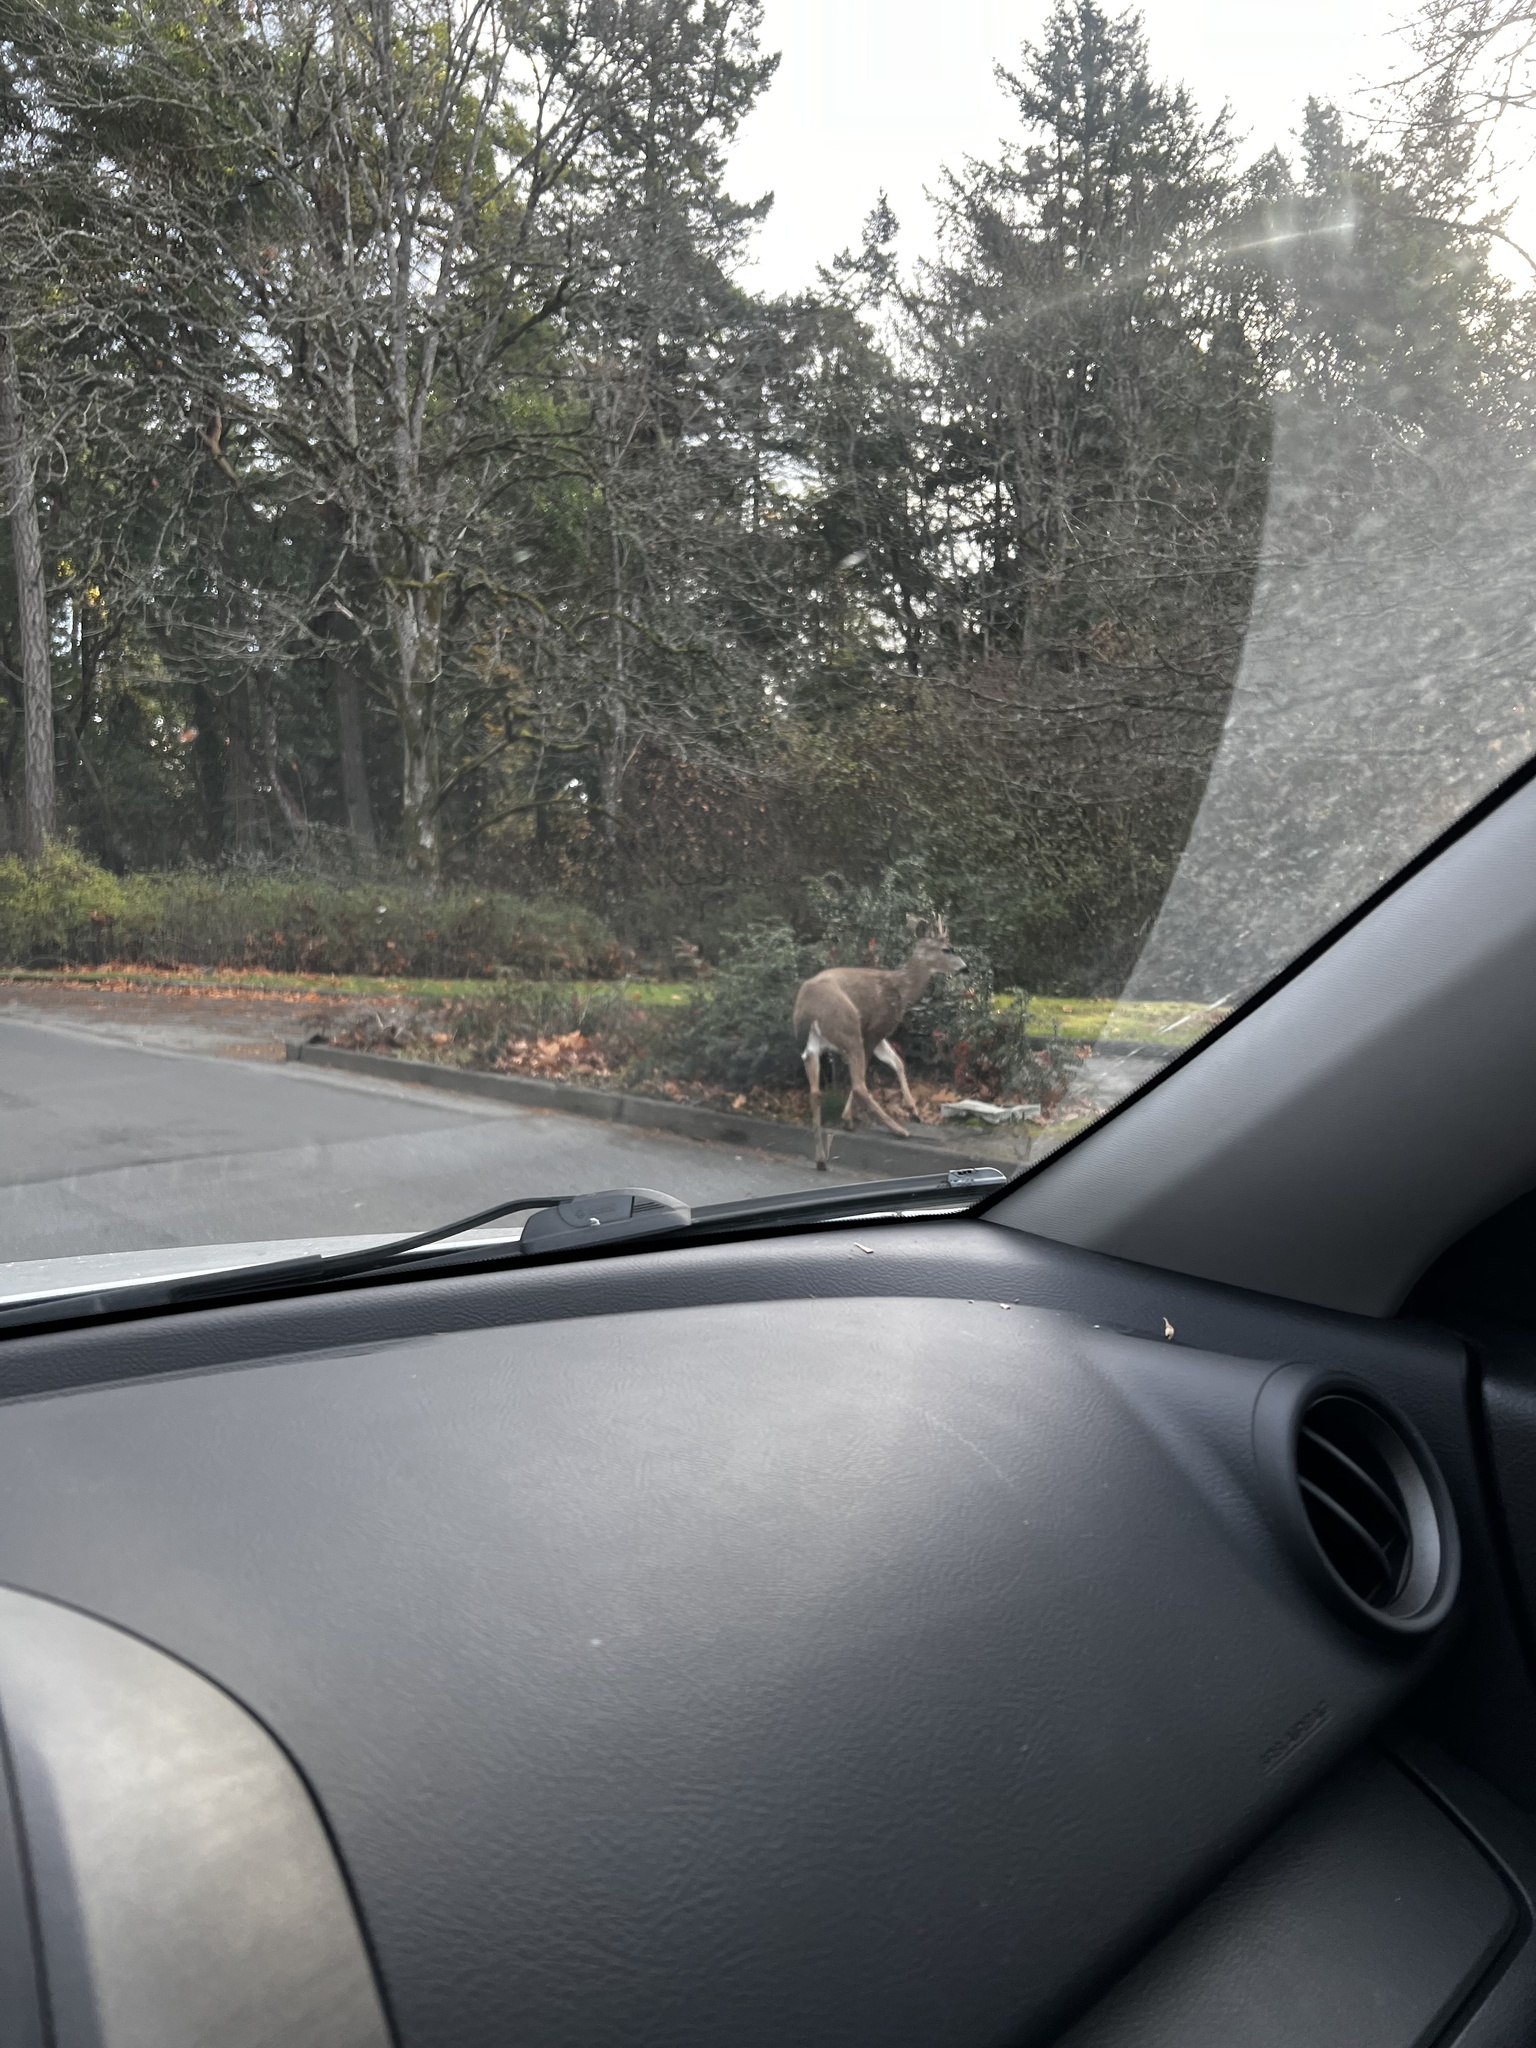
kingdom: Animalia
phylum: Chordata
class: Mammalia
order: Artiodactyla
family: Cervidae
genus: Odocoileus
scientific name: Odocoileus hemionus
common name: Mule deer
